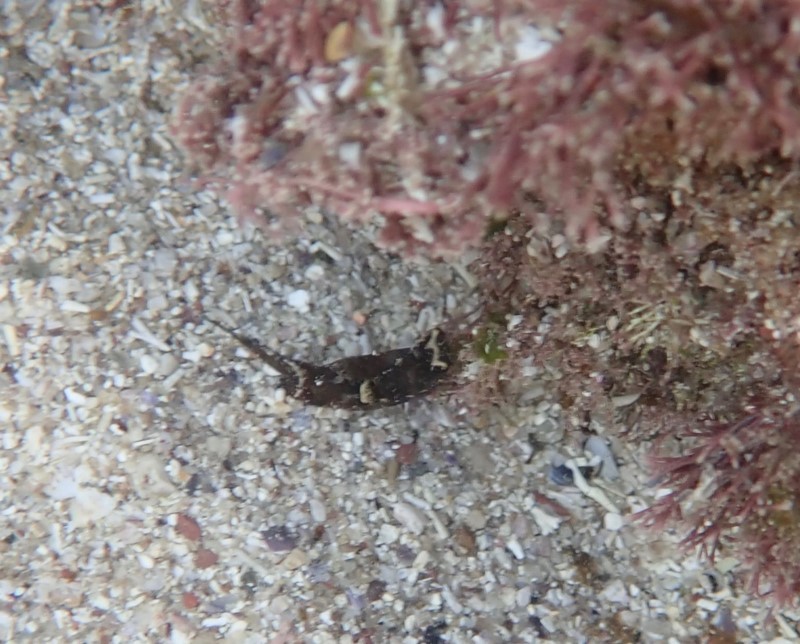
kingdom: Animalia
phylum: Mollusca
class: Gastropoda
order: Cephalaspidea
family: Aglajidae
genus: Biuve
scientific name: Biuve fulvipunctata
